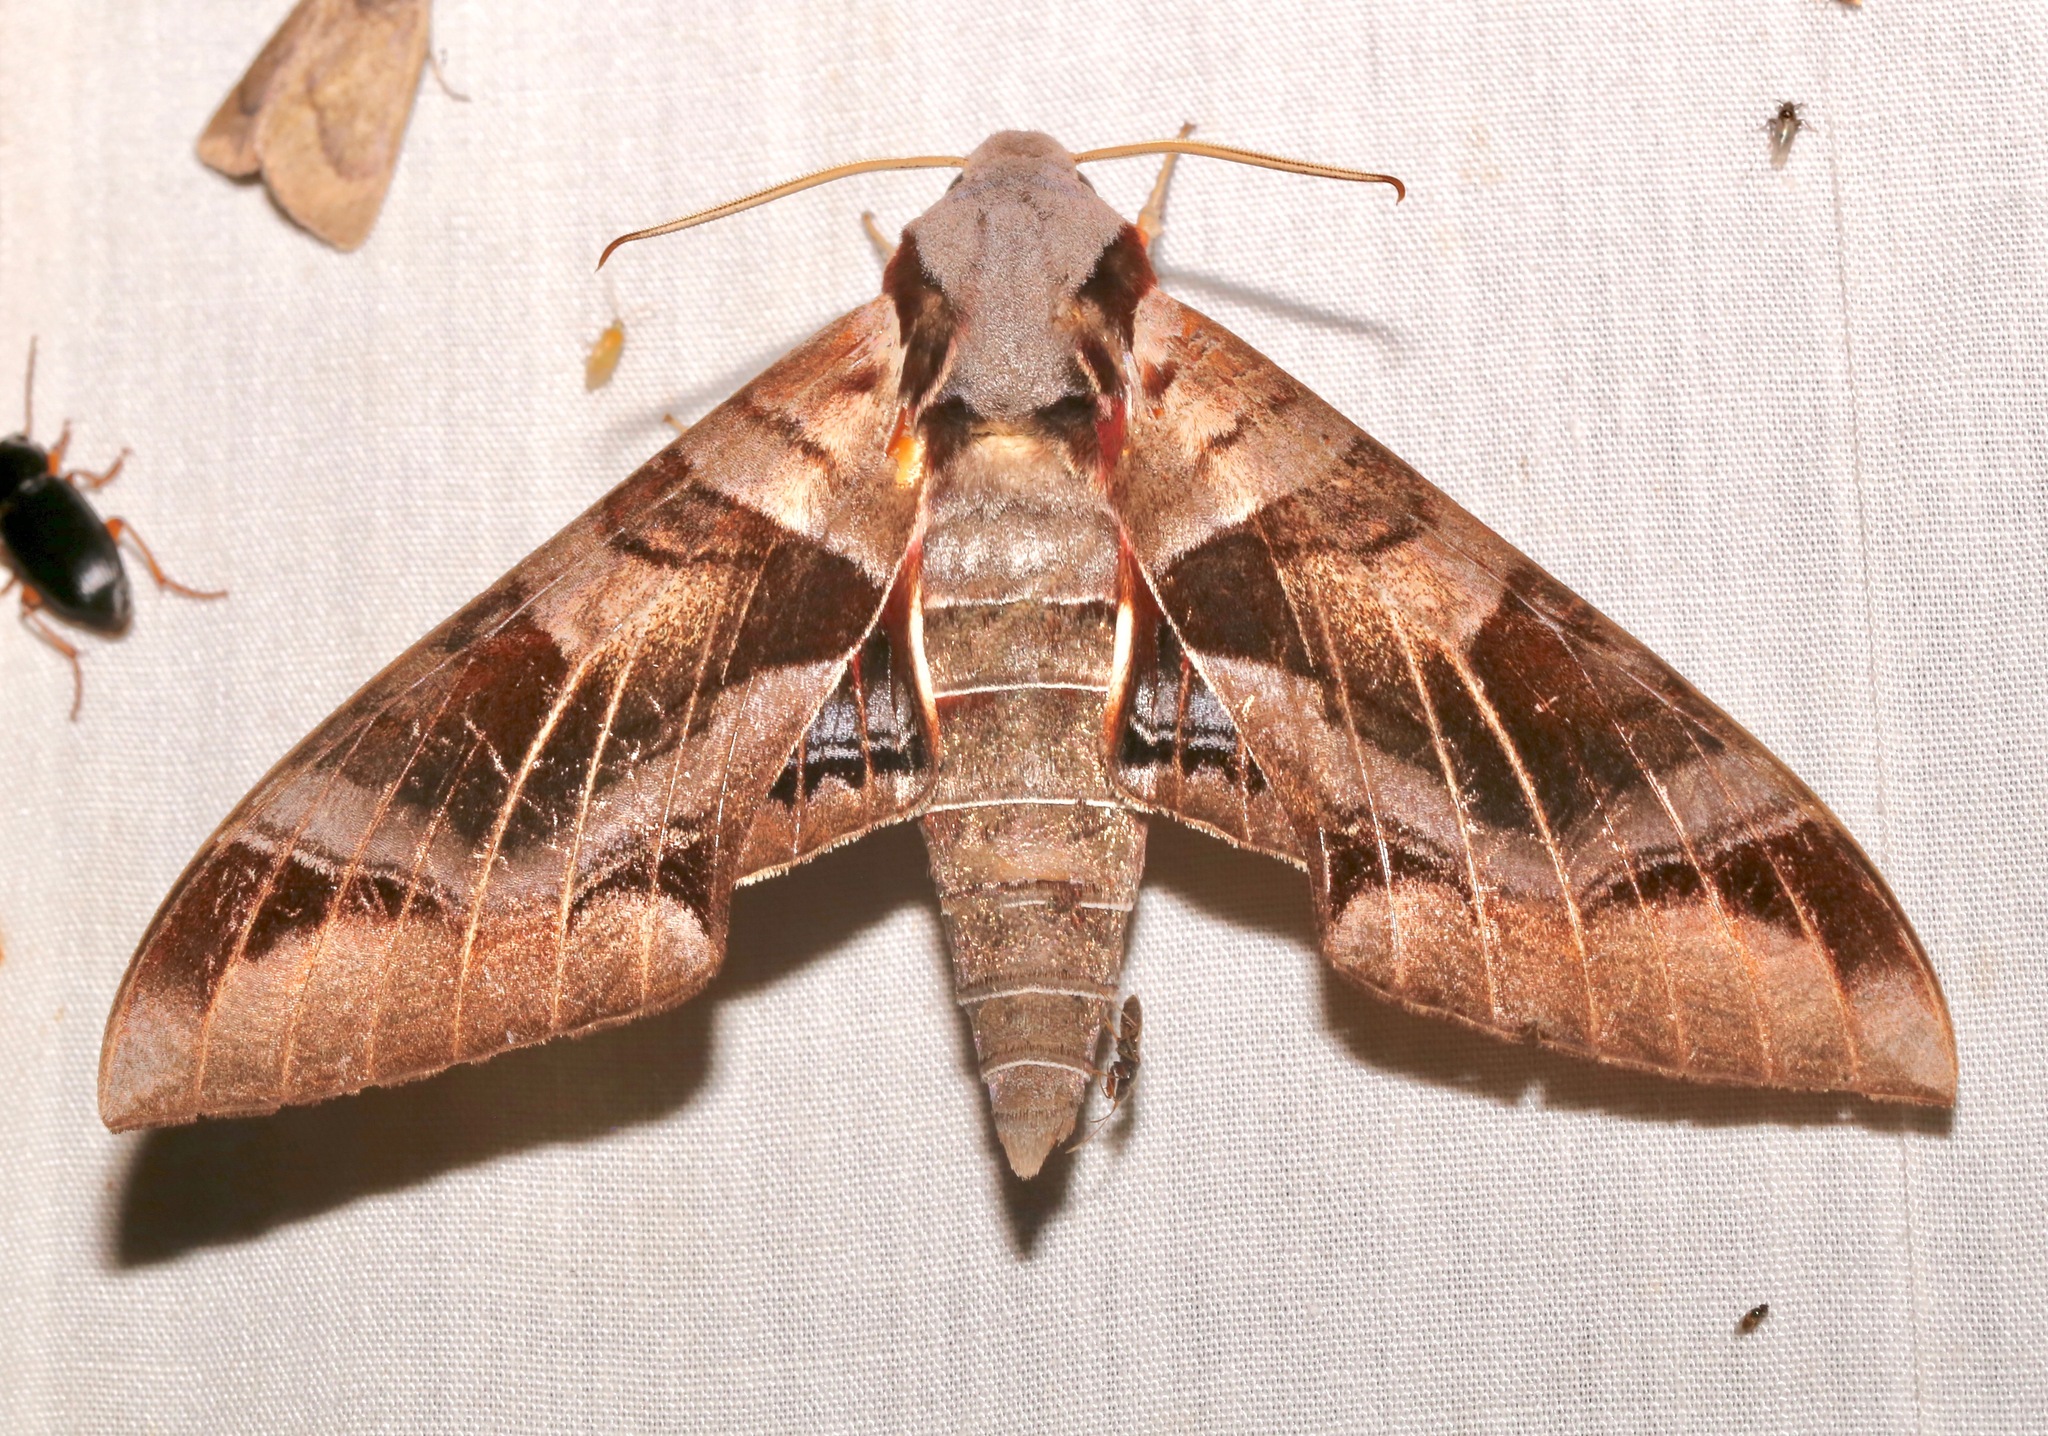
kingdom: Animalia
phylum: Arthropoda
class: Insecta
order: Lepidoptera
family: Sphingidae
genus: Eumorpha
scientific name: Eumorpha typhon
